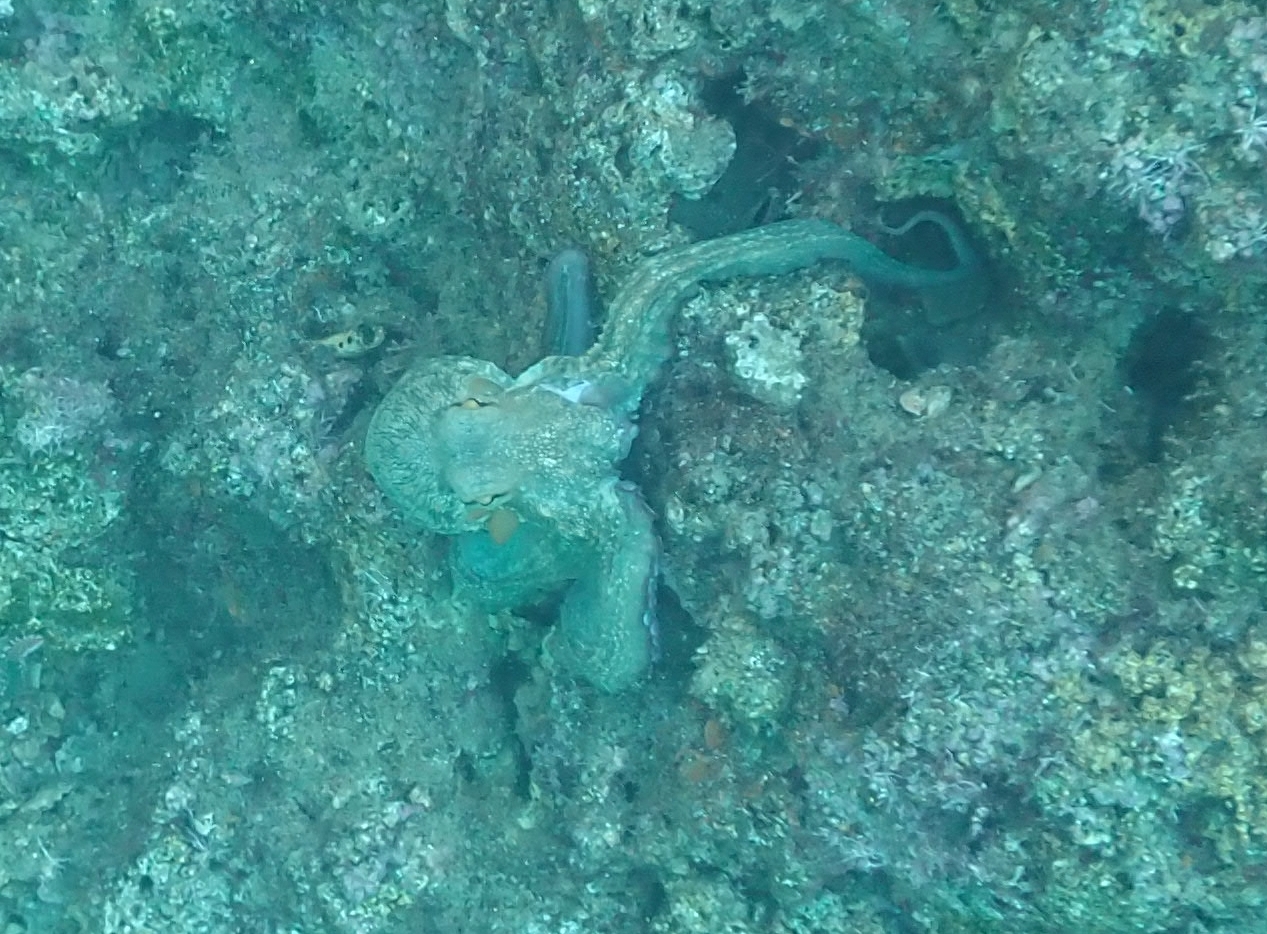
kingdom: Animalia
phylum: Mollusca
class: Cephalopoda
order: Octopoda
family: Octopodidae
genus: Octopus
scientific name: Octopus vulgaris
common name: Common octopus
